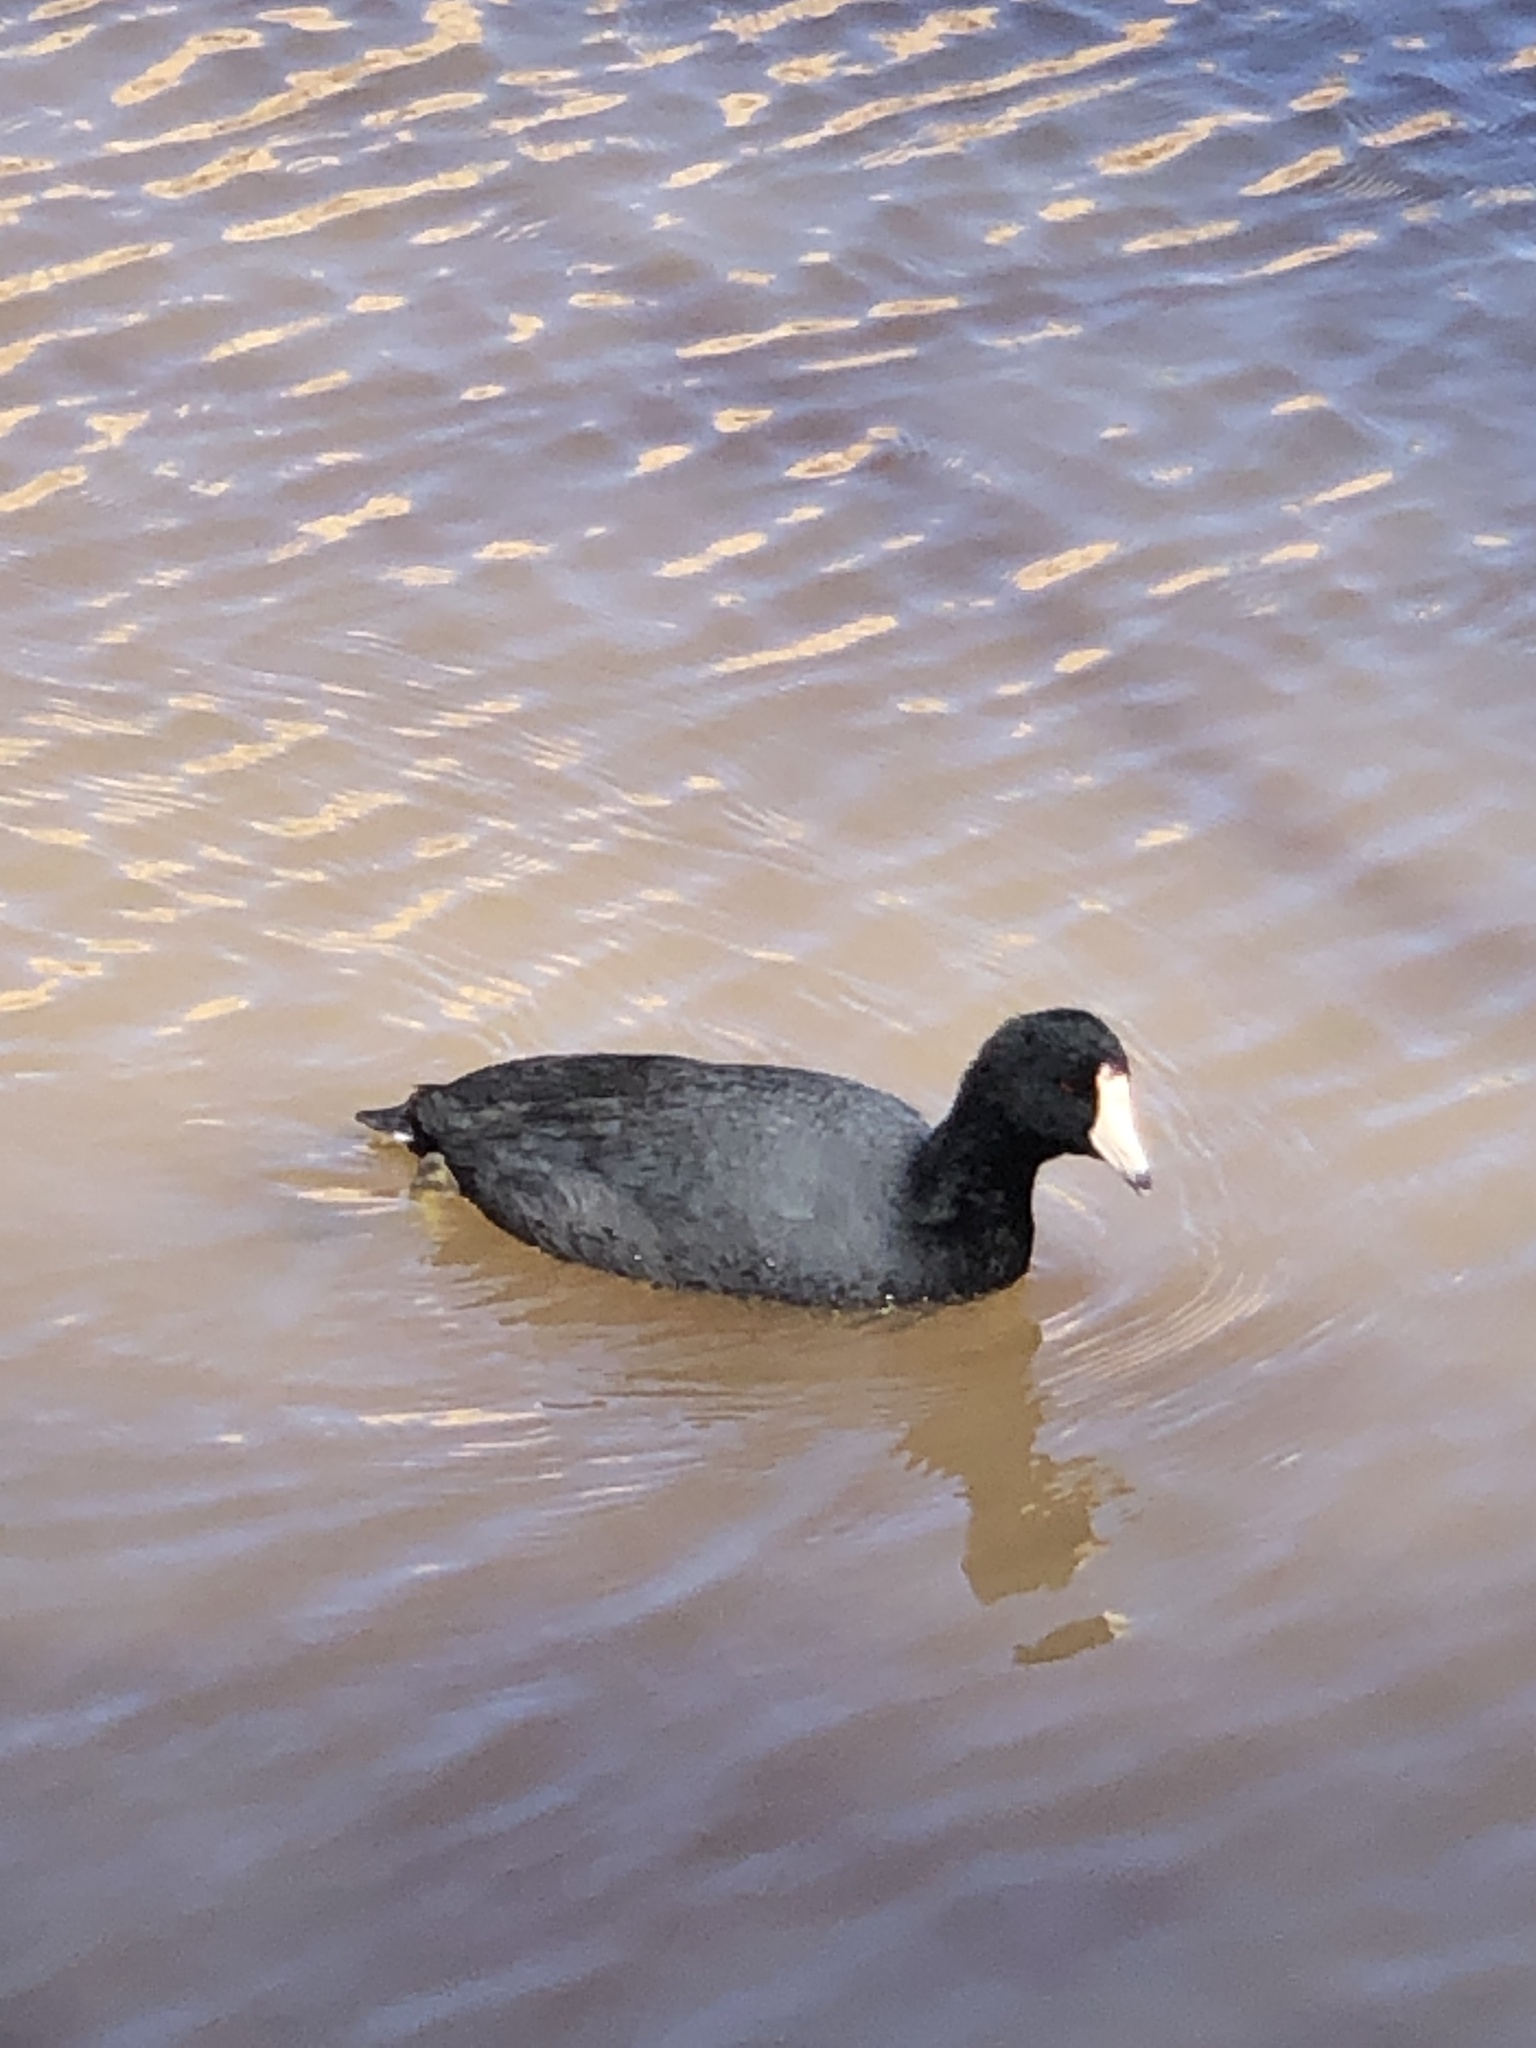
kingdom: Animalia
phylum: Chordata
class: Aves
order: Gruiformes
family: Rallidae
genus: Fulica
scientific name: Fulica americana
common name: American coot
